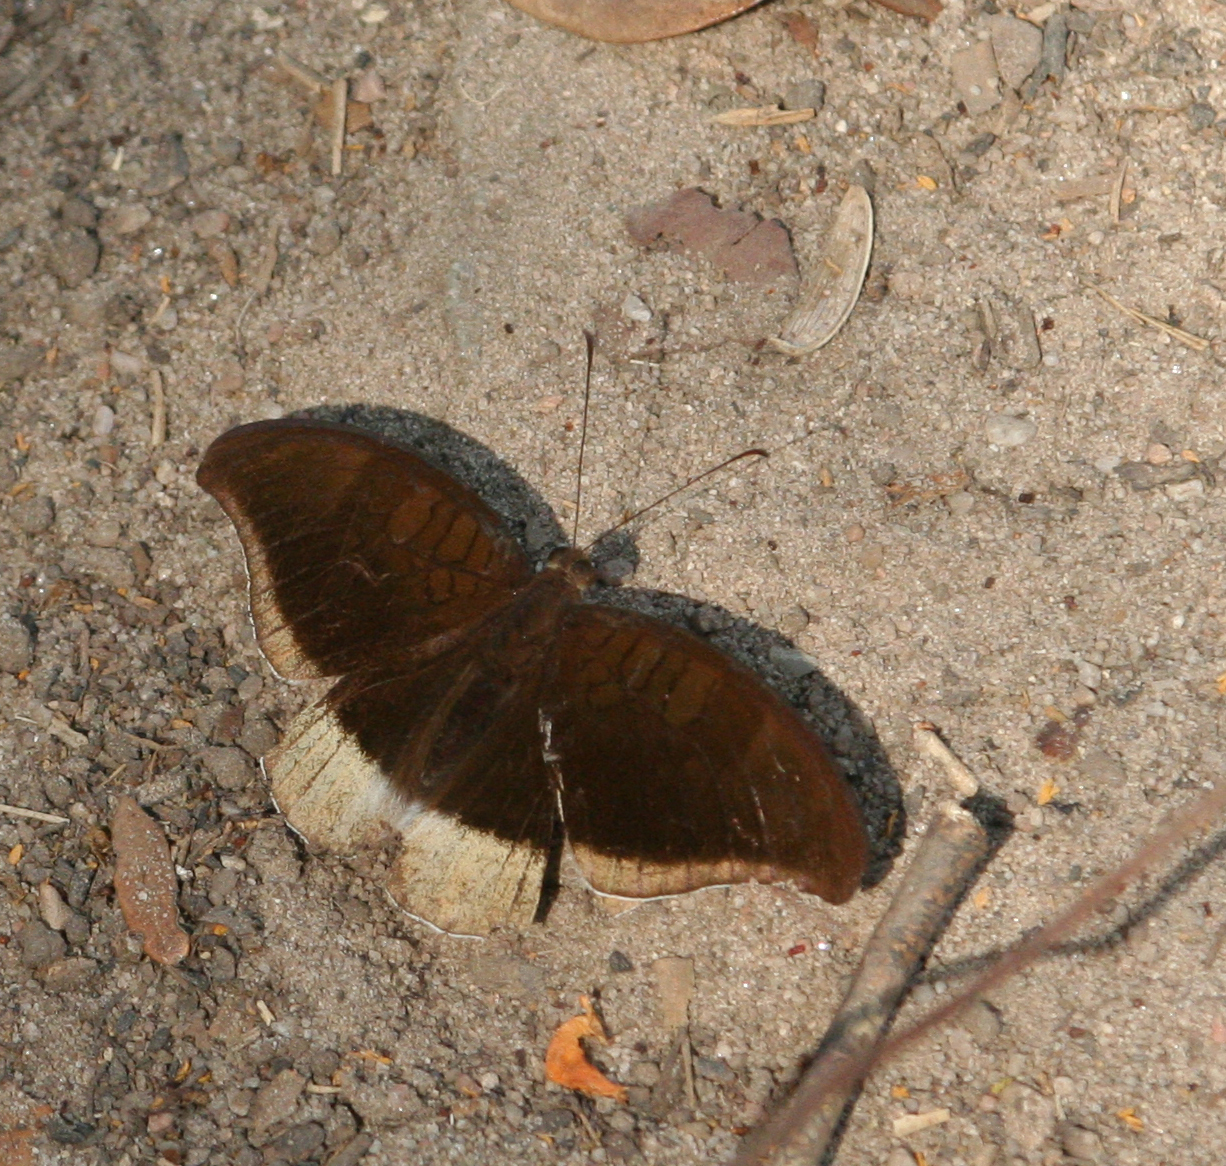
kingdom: Animalia
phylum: Arthropoda
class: Insecta
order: Lepidoptera
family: Nymphalidae
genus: Tanaecia
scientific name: Tanaecia lepidea
